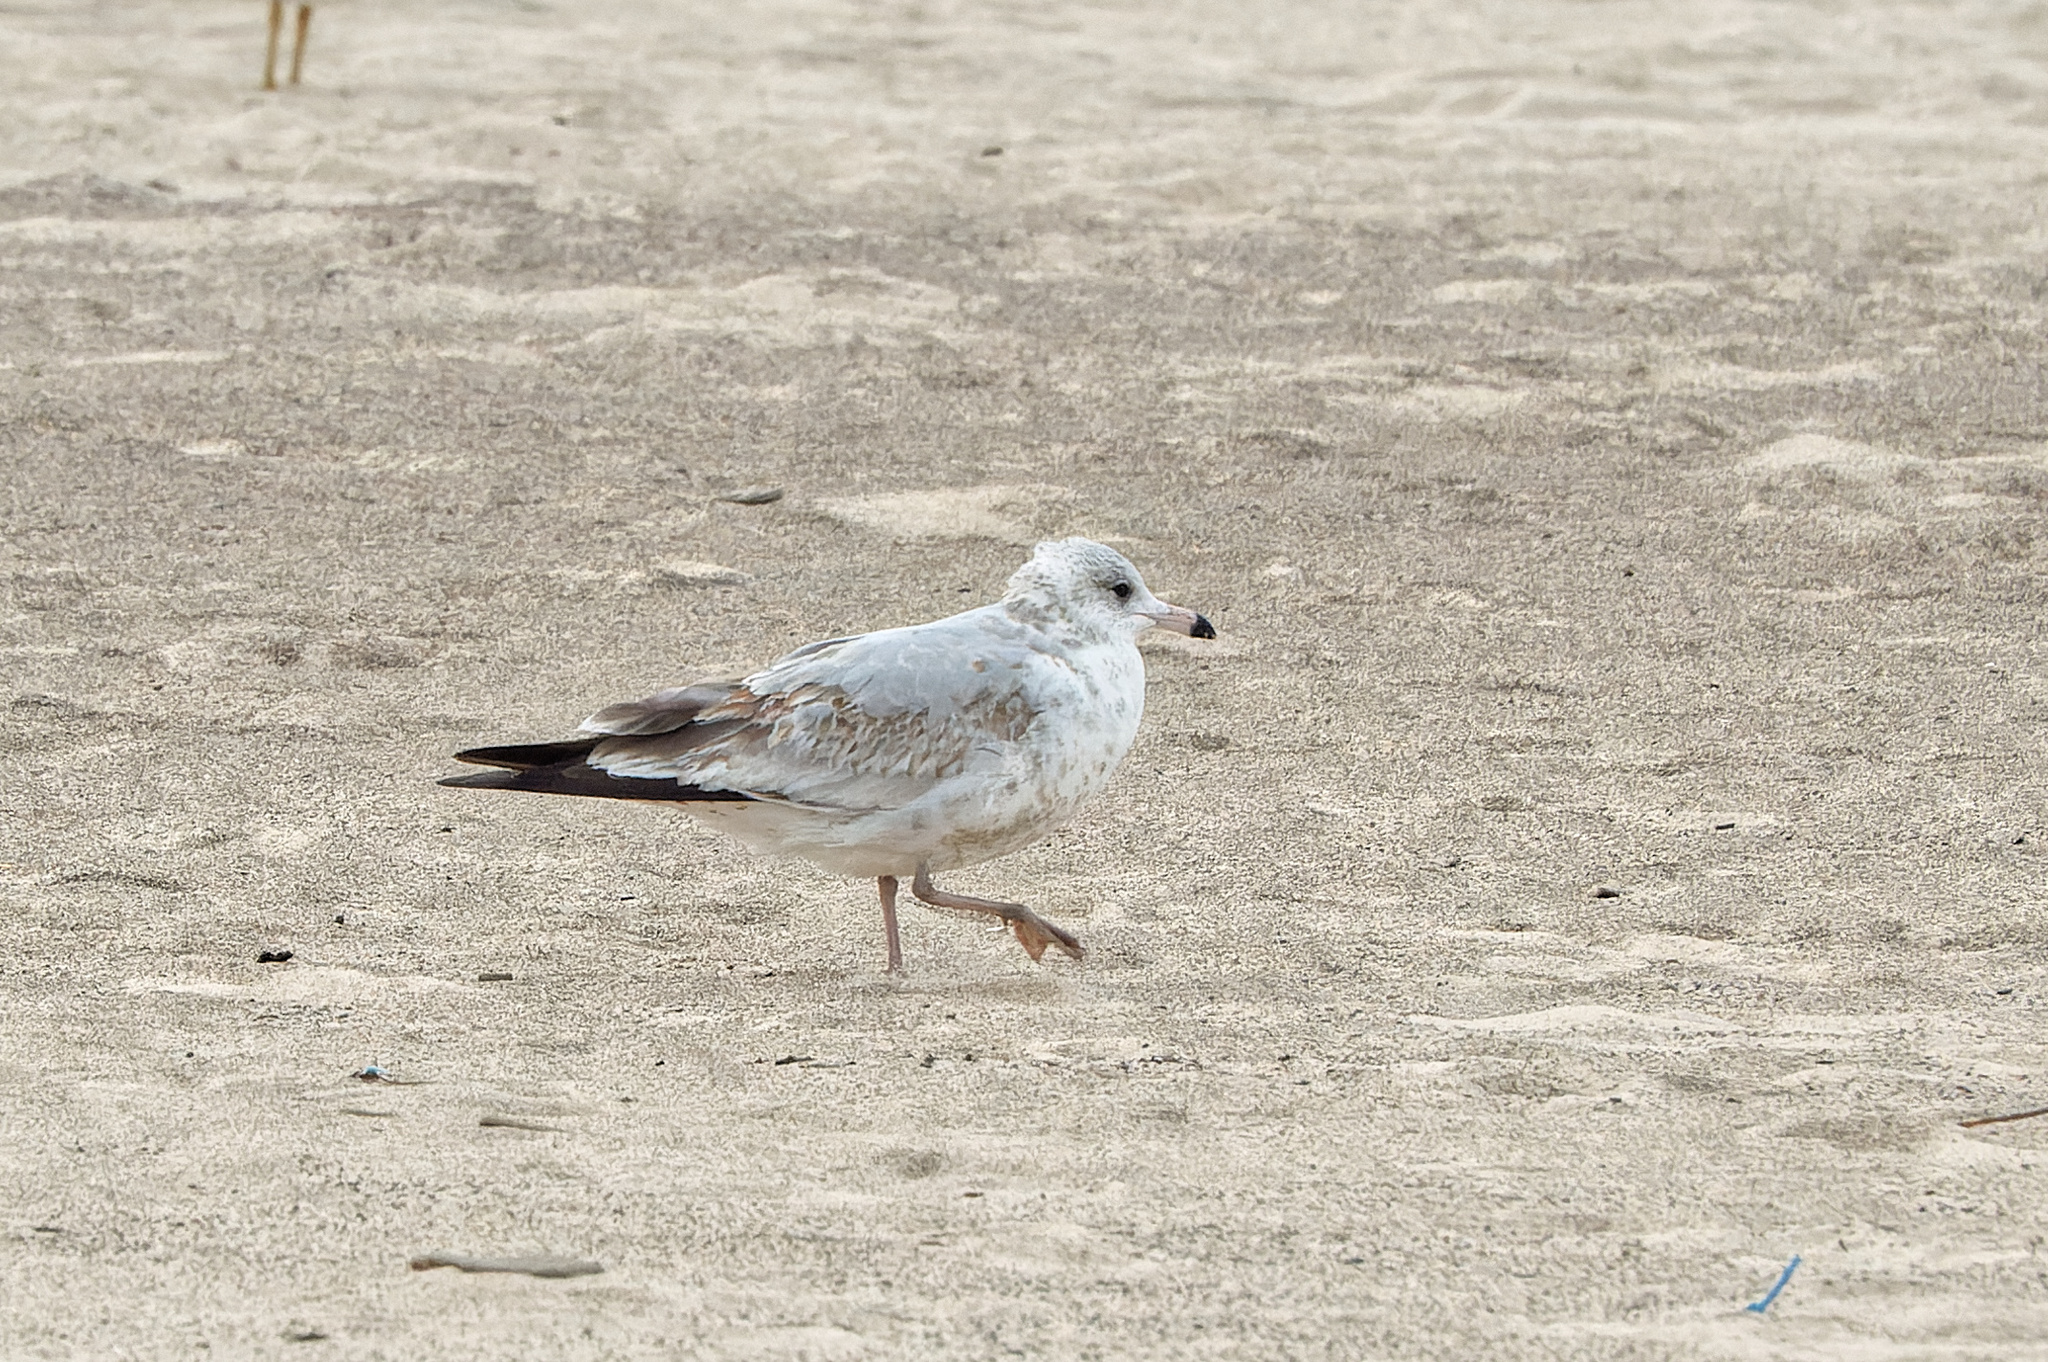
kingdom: Animalia
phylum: Chordata
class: Aves
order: Charadriiformes
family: Laridae
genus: Larus
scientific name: Larus delawarensis
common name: Ring-billed gull
